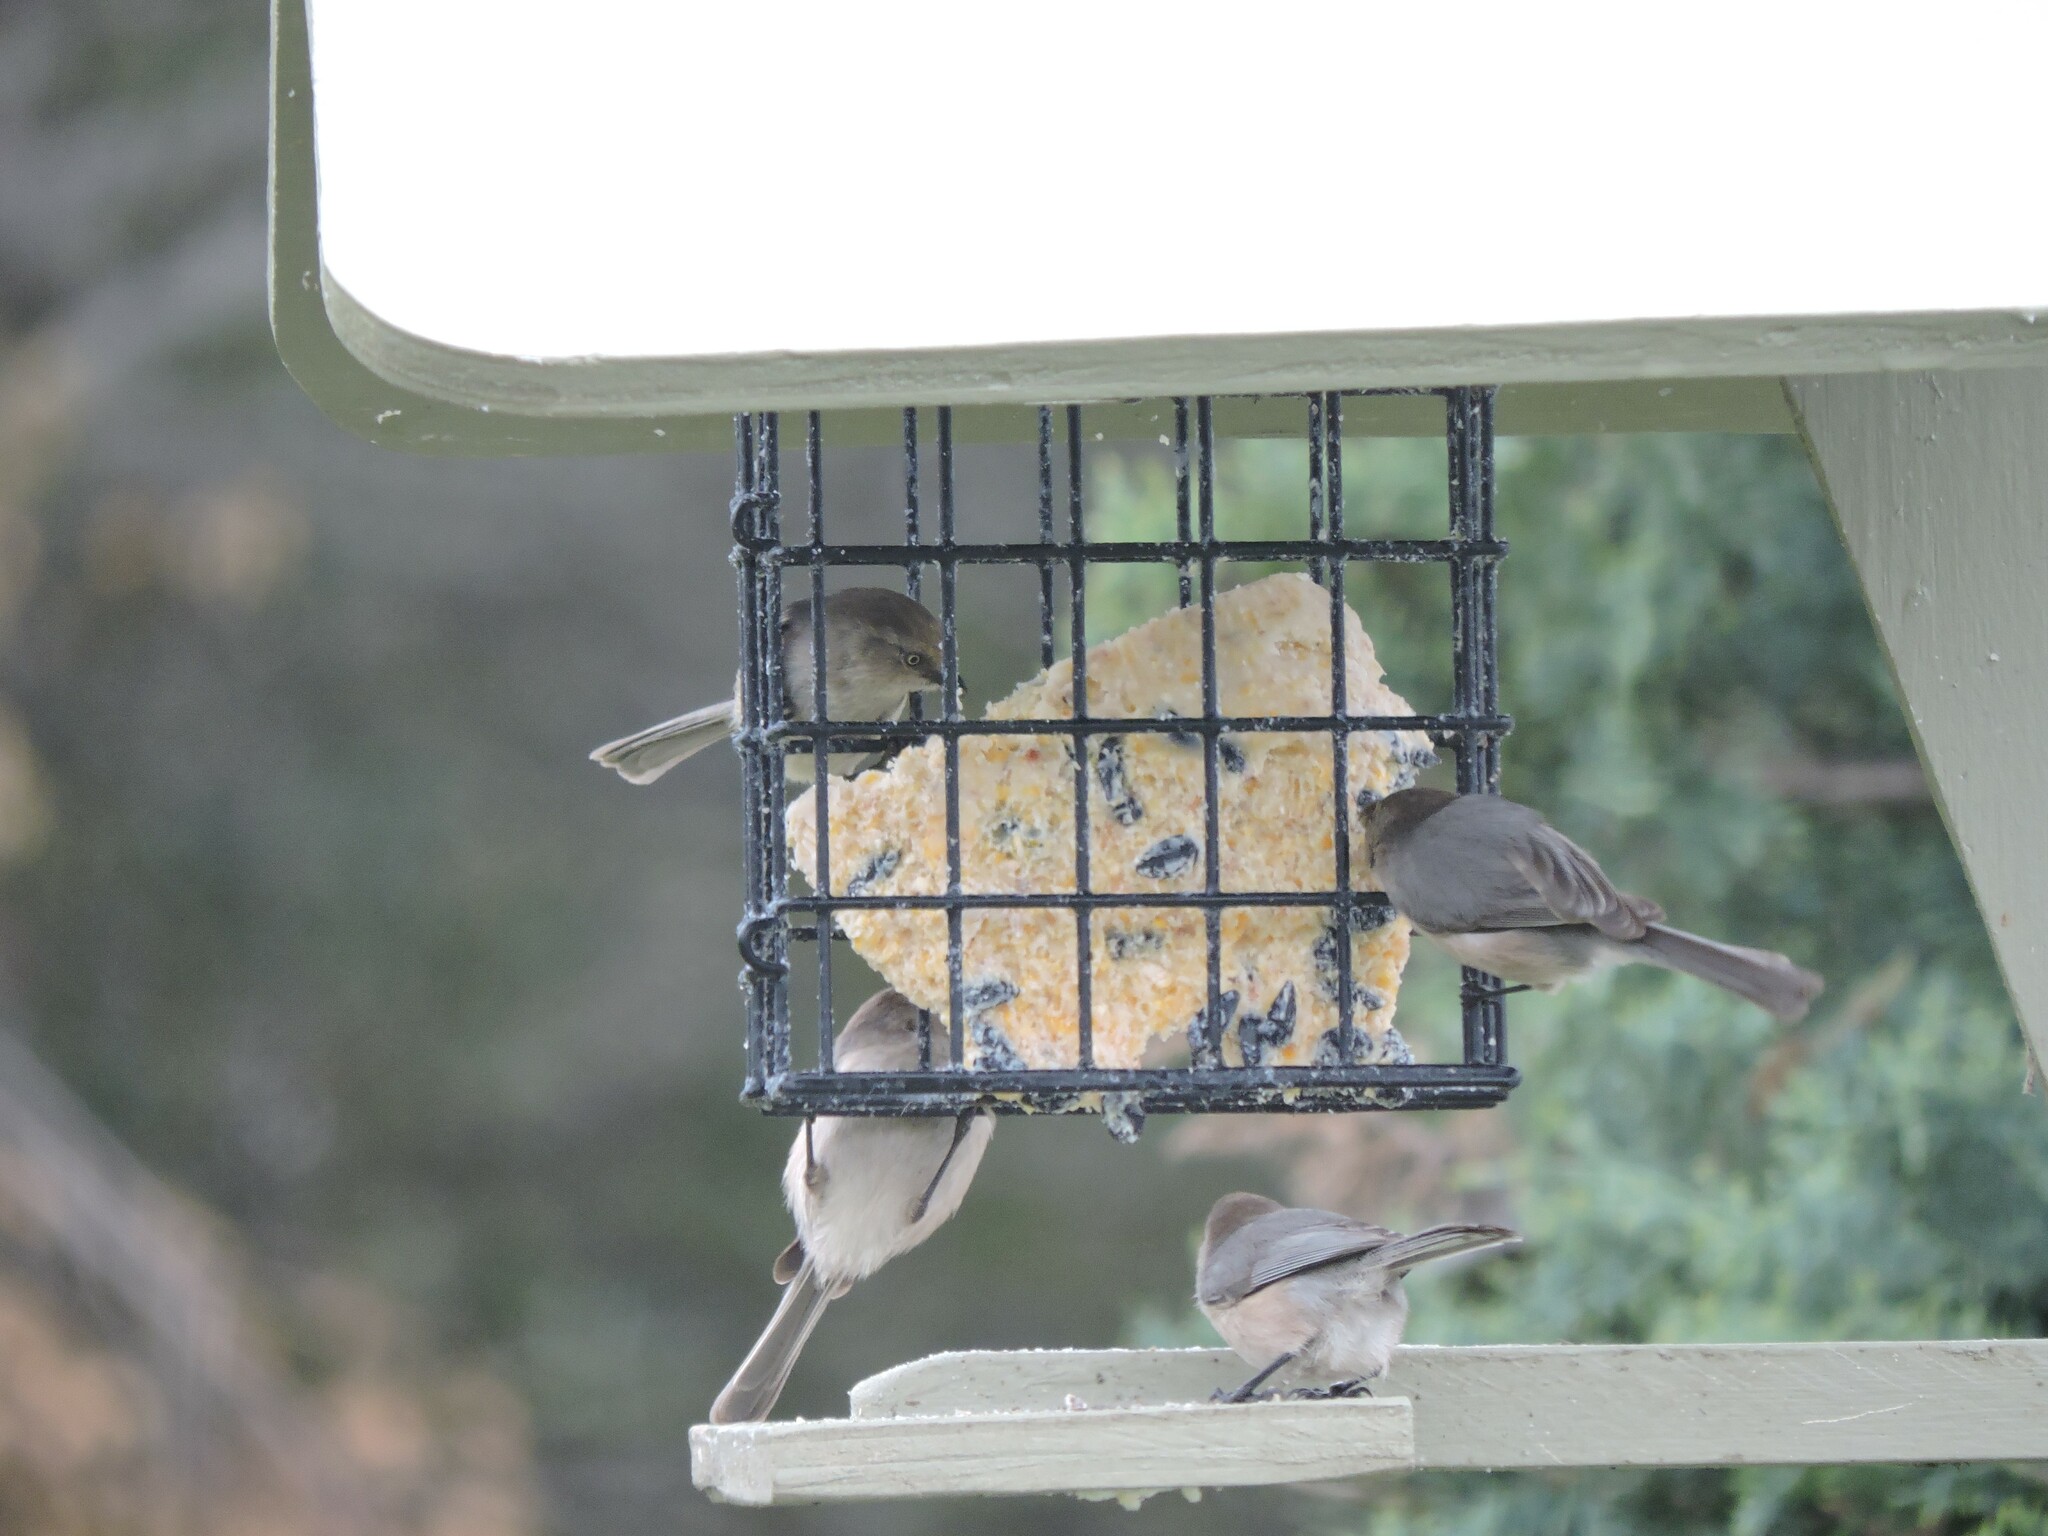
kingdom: Animalia
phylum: Chordata
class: Aves
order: Passeriformes
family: Aegithalidae
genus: Psaltriparus
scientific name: Psaltriparus minimus
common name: American bushtit
